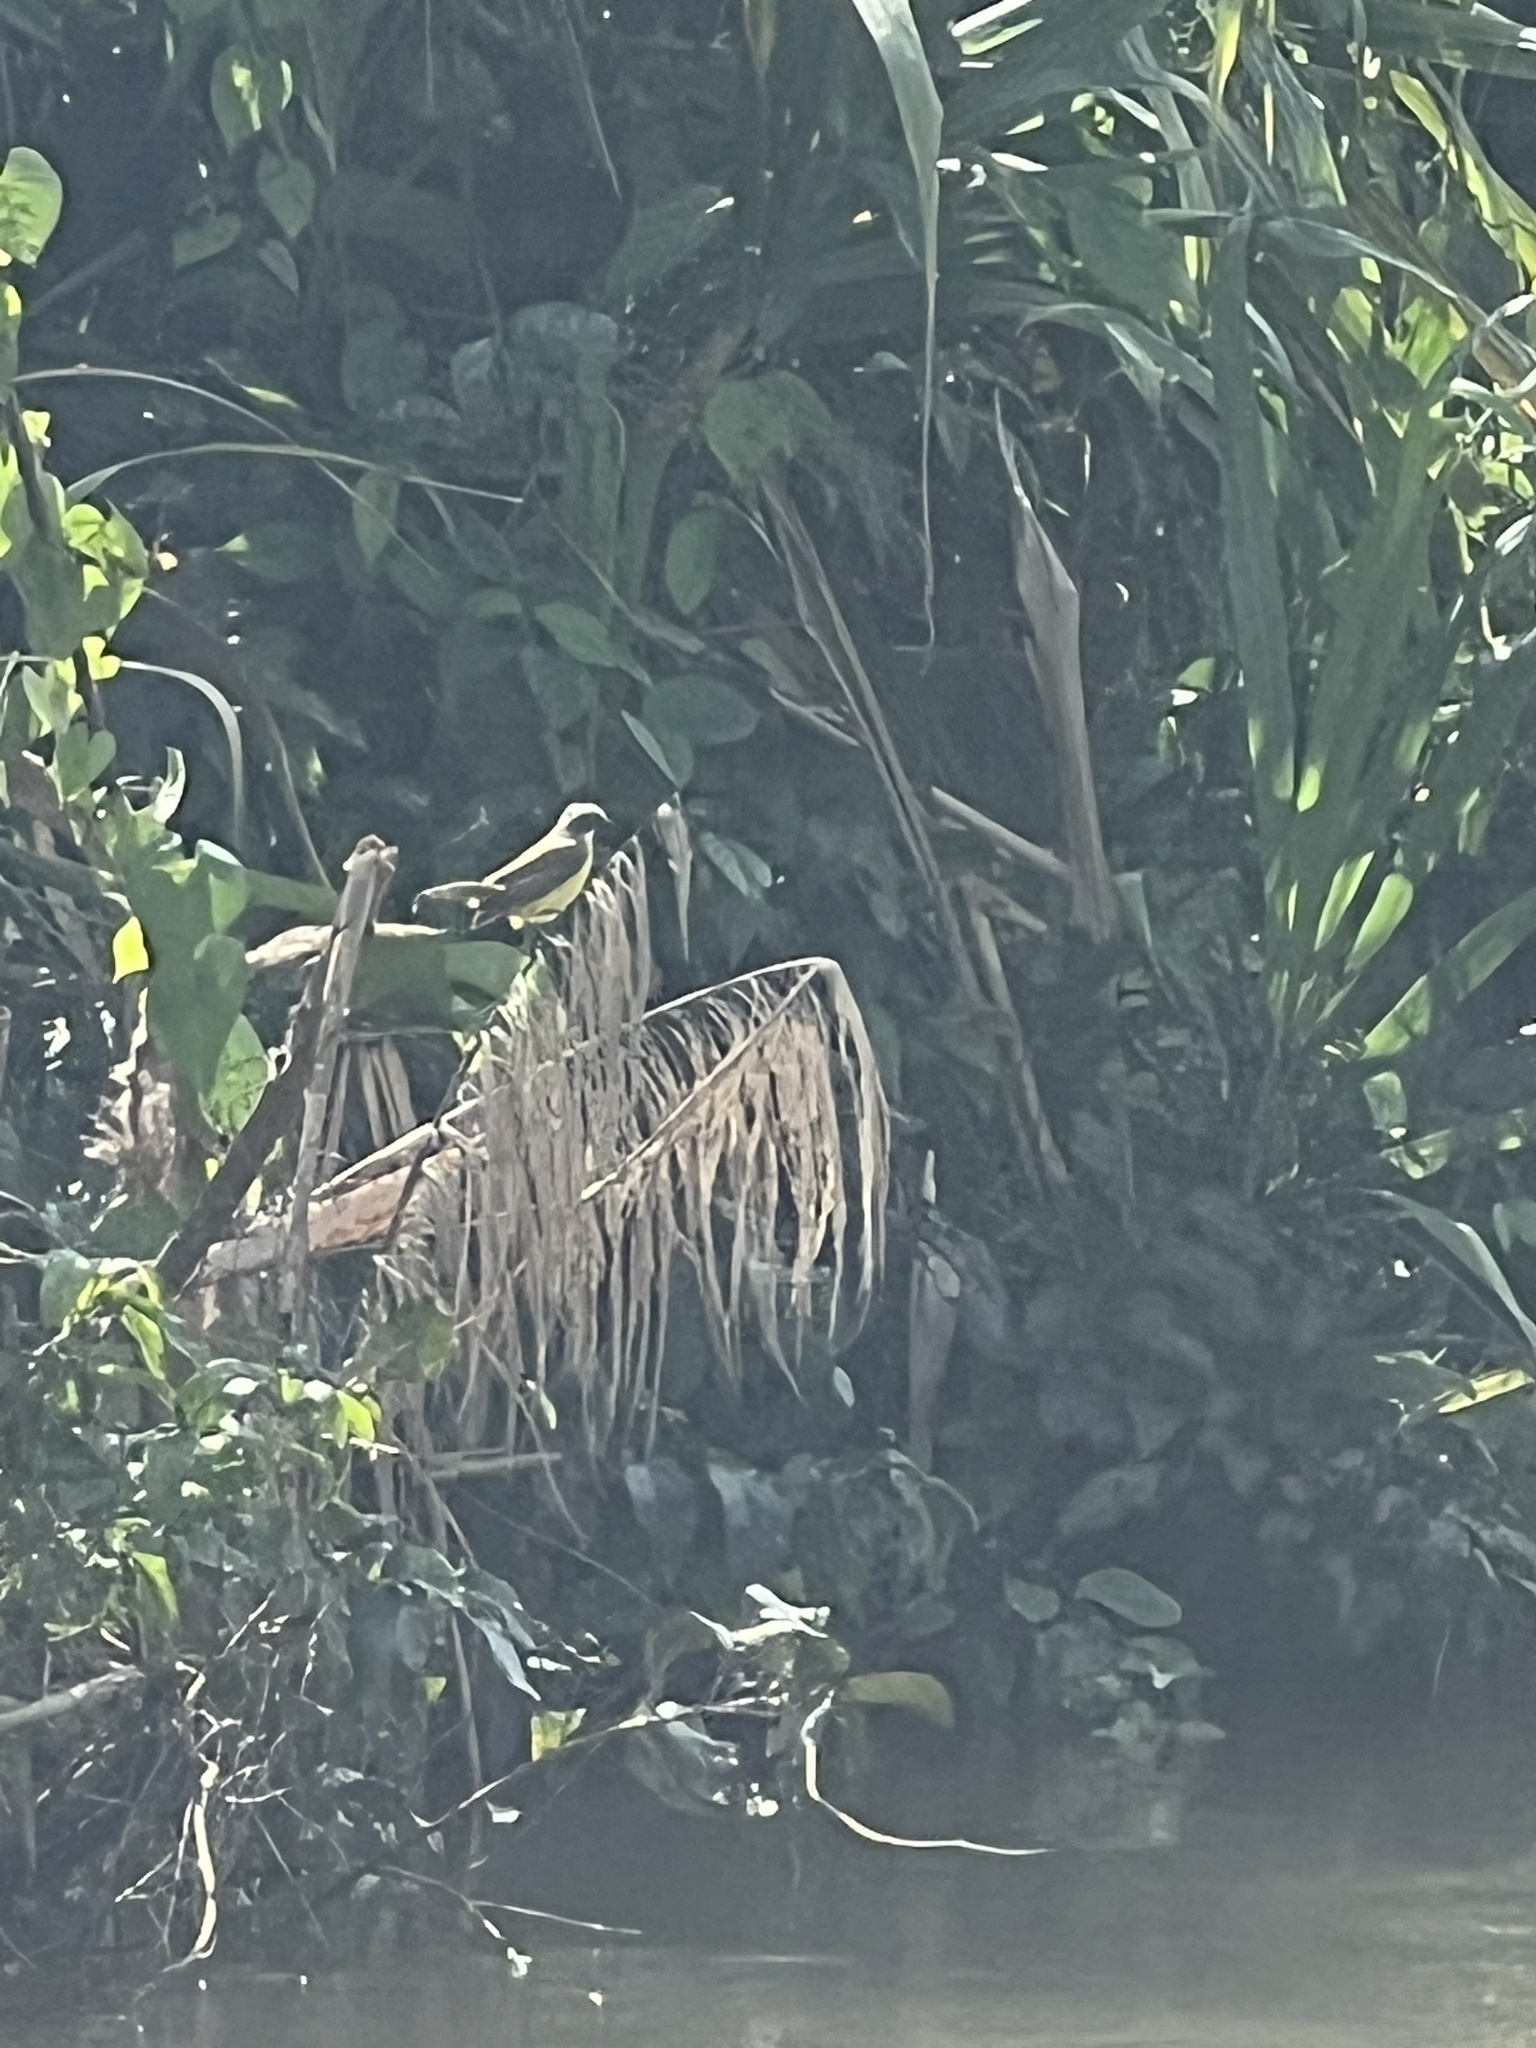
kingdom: Animalia
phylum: Chordata
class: Aves
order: Passeriformes
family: Tyrannidae
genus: Myiozetetes
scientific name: Myiozetetes similis
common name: Social flycatcher
